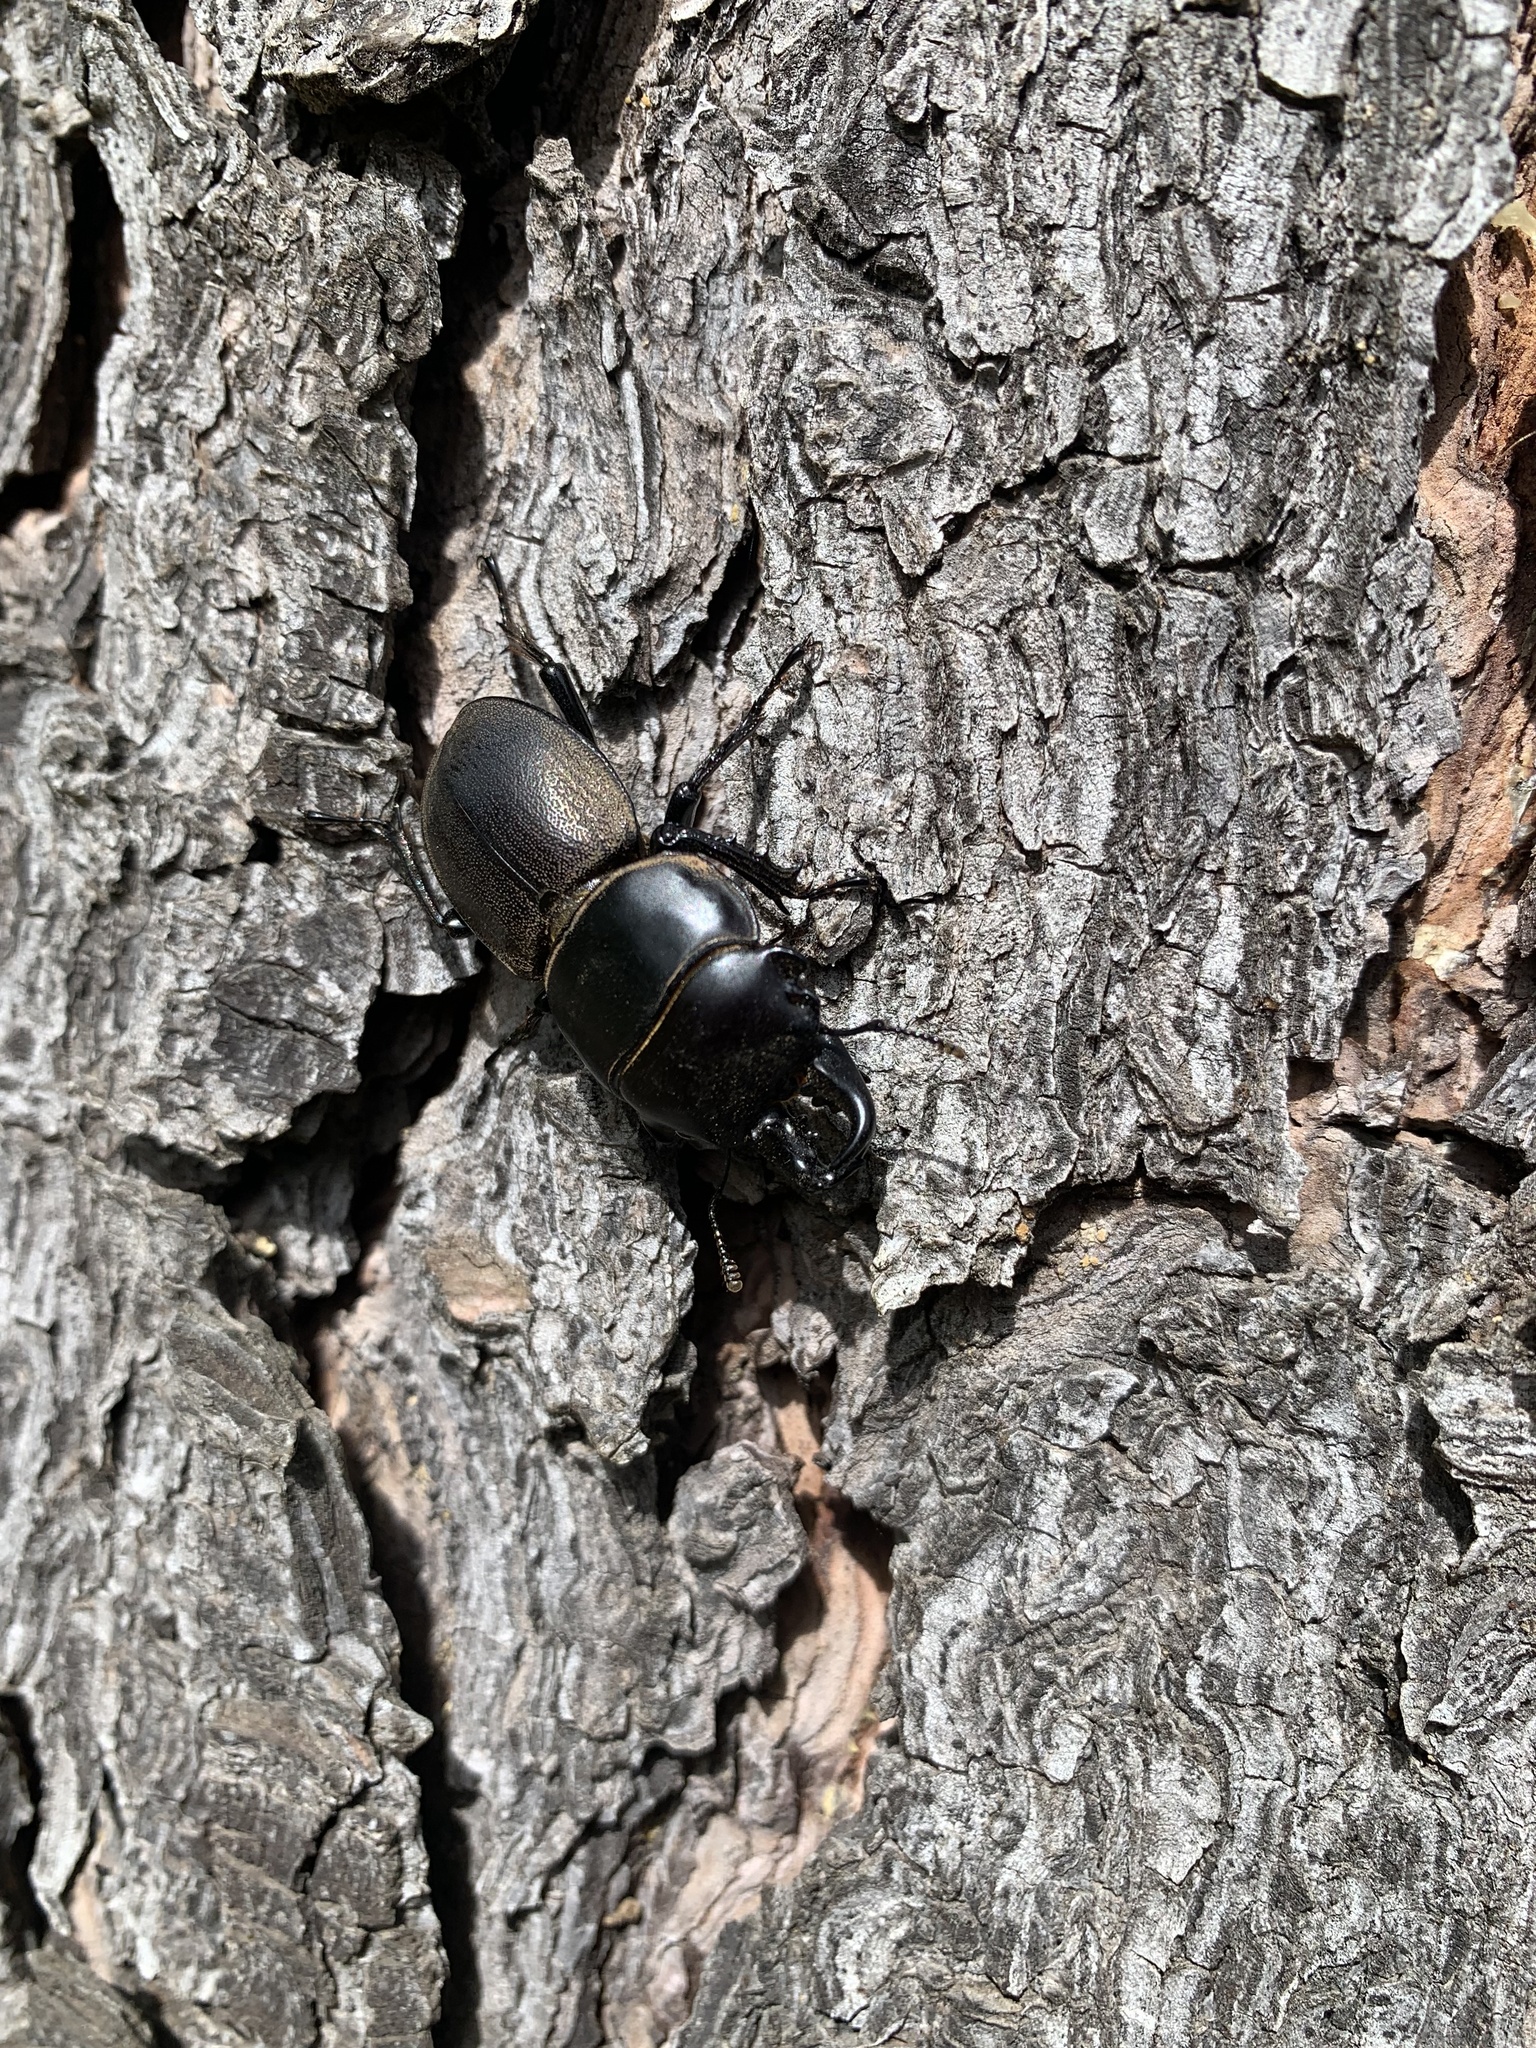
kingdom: Animalia
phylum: Arthropoda
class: Insecta
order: Coleoptera
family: Lucanidae
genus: Apterodorcus
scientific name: Apterodorcus bacchus
